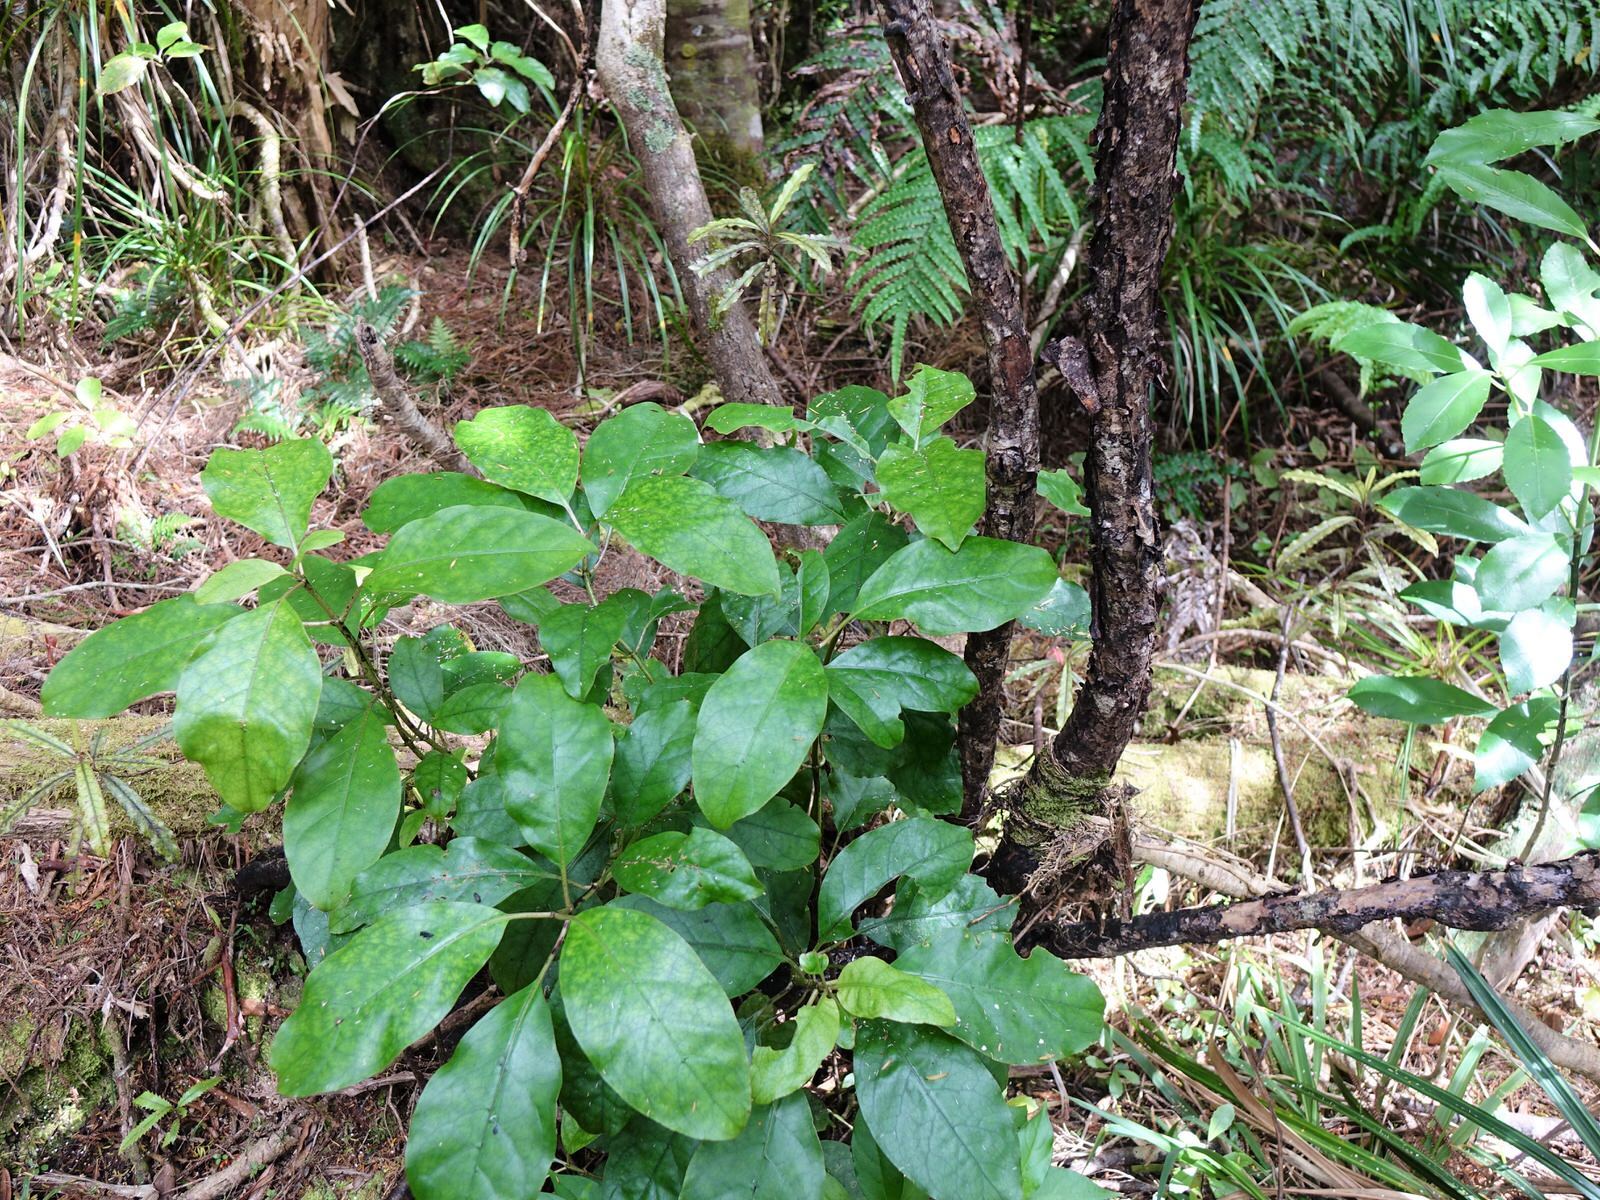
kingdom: Plantae
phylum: Tracheophyta
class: Magnoliopsida
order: Gentianales
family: Rubiaceae
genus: Coprosma
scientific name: Coprosma autumnalis
